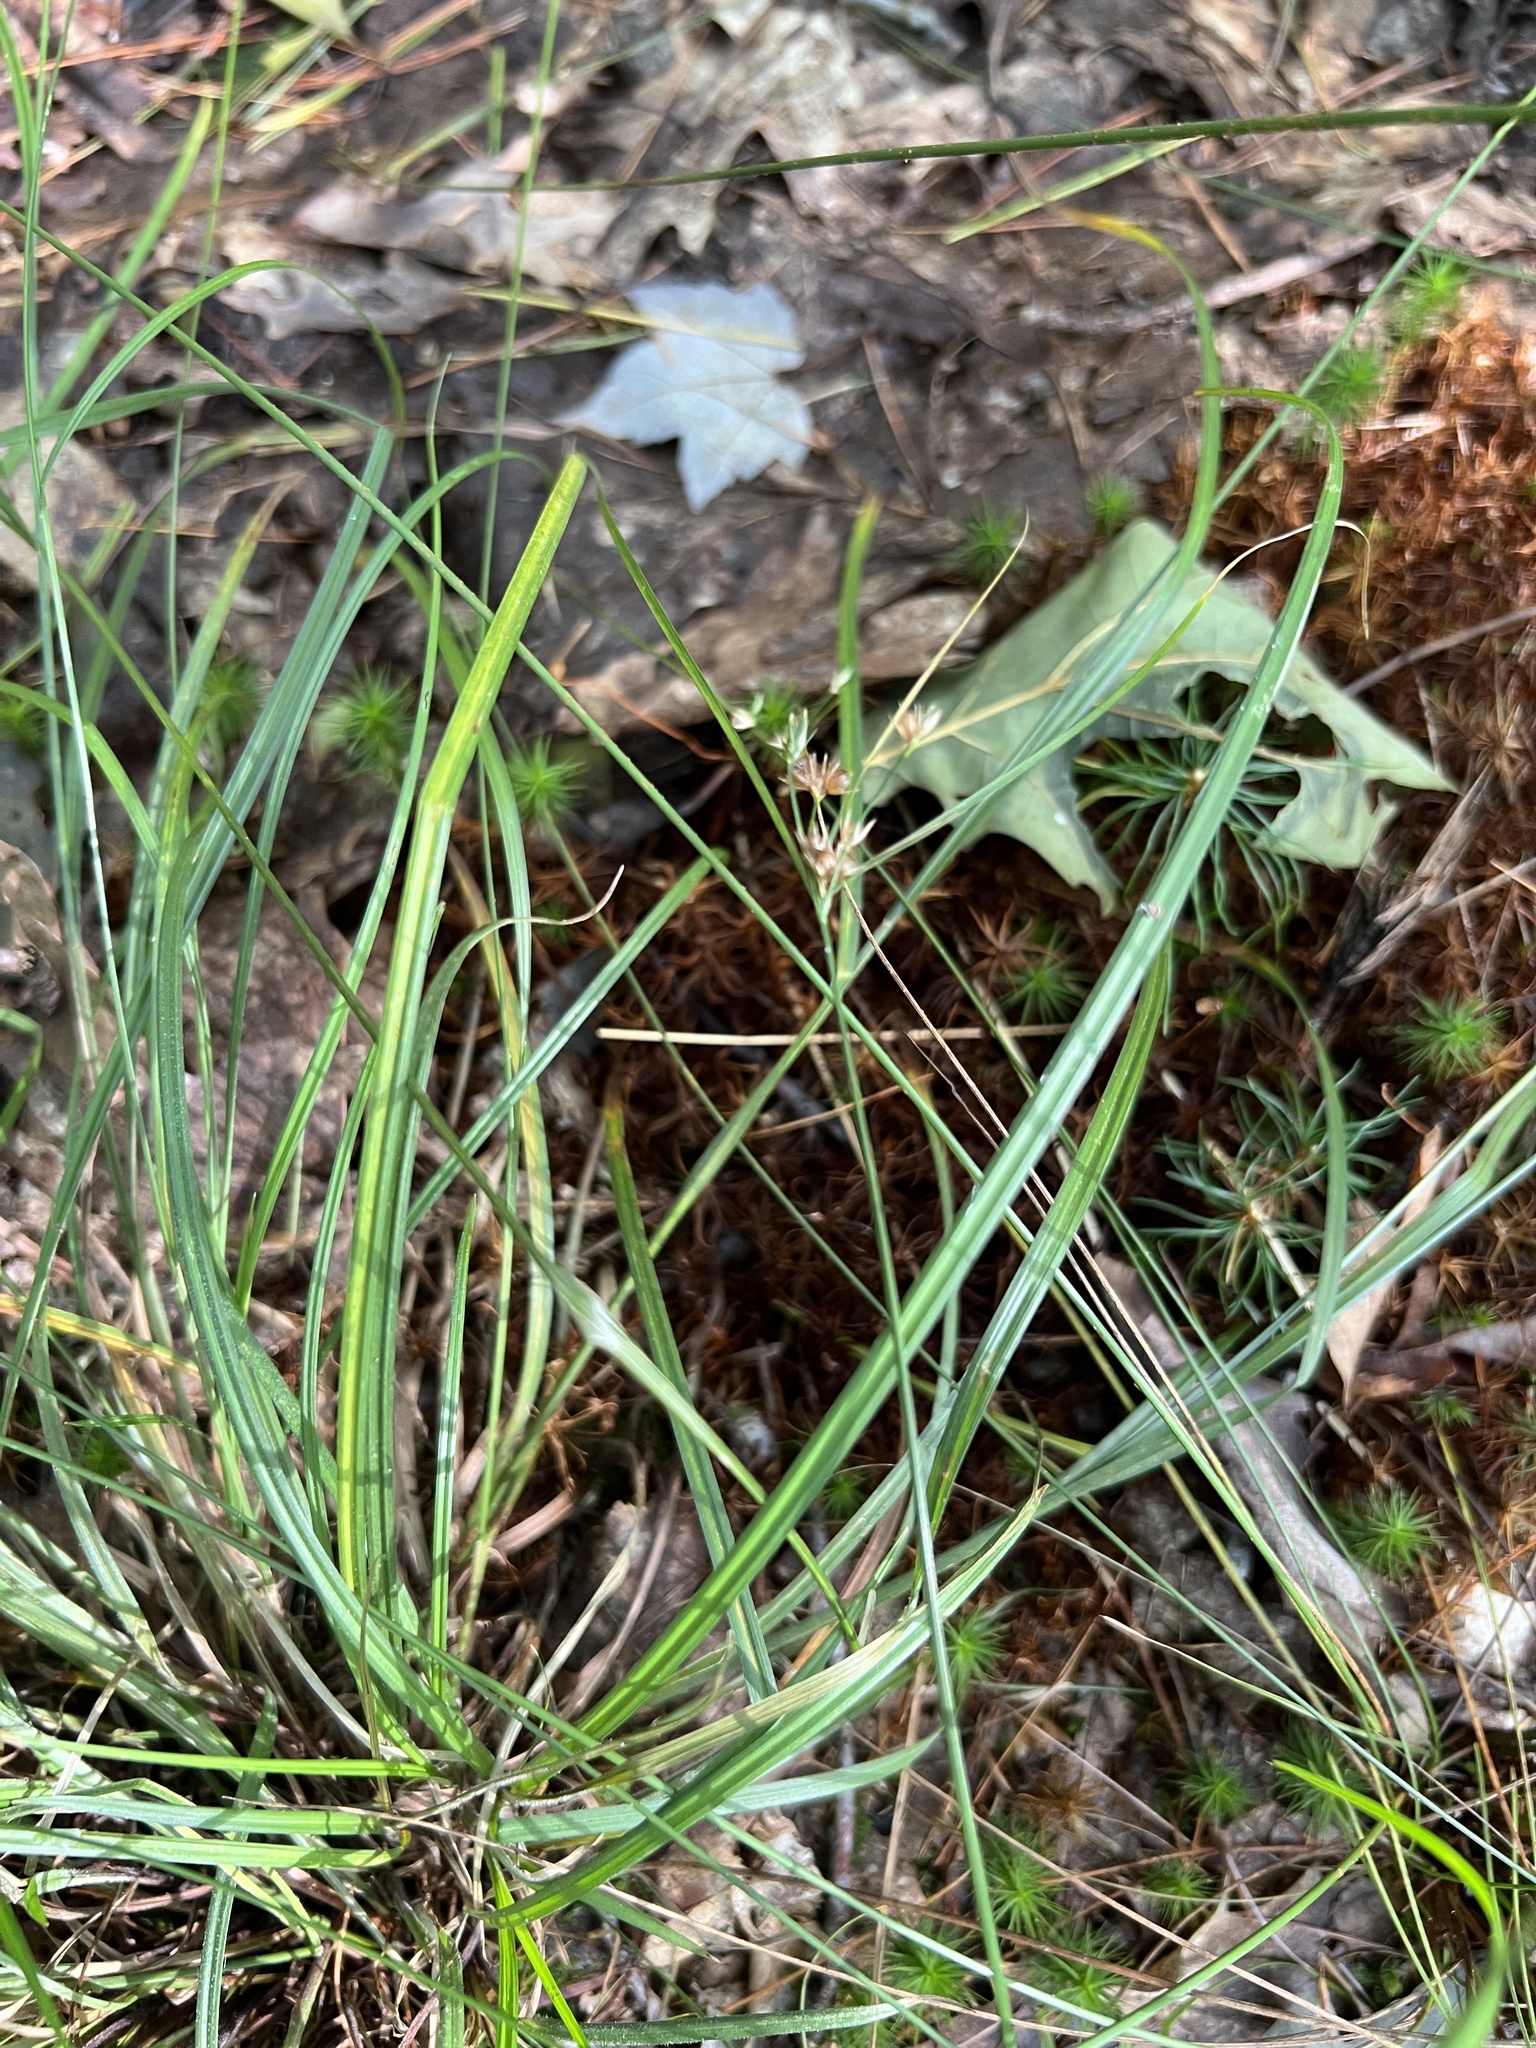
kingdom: Plantae
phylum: Tracheophyta
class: Liliopsida
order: Poales
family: Juncaceae
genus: Juncus
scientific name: Juncus tenuis
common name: Slender rush
